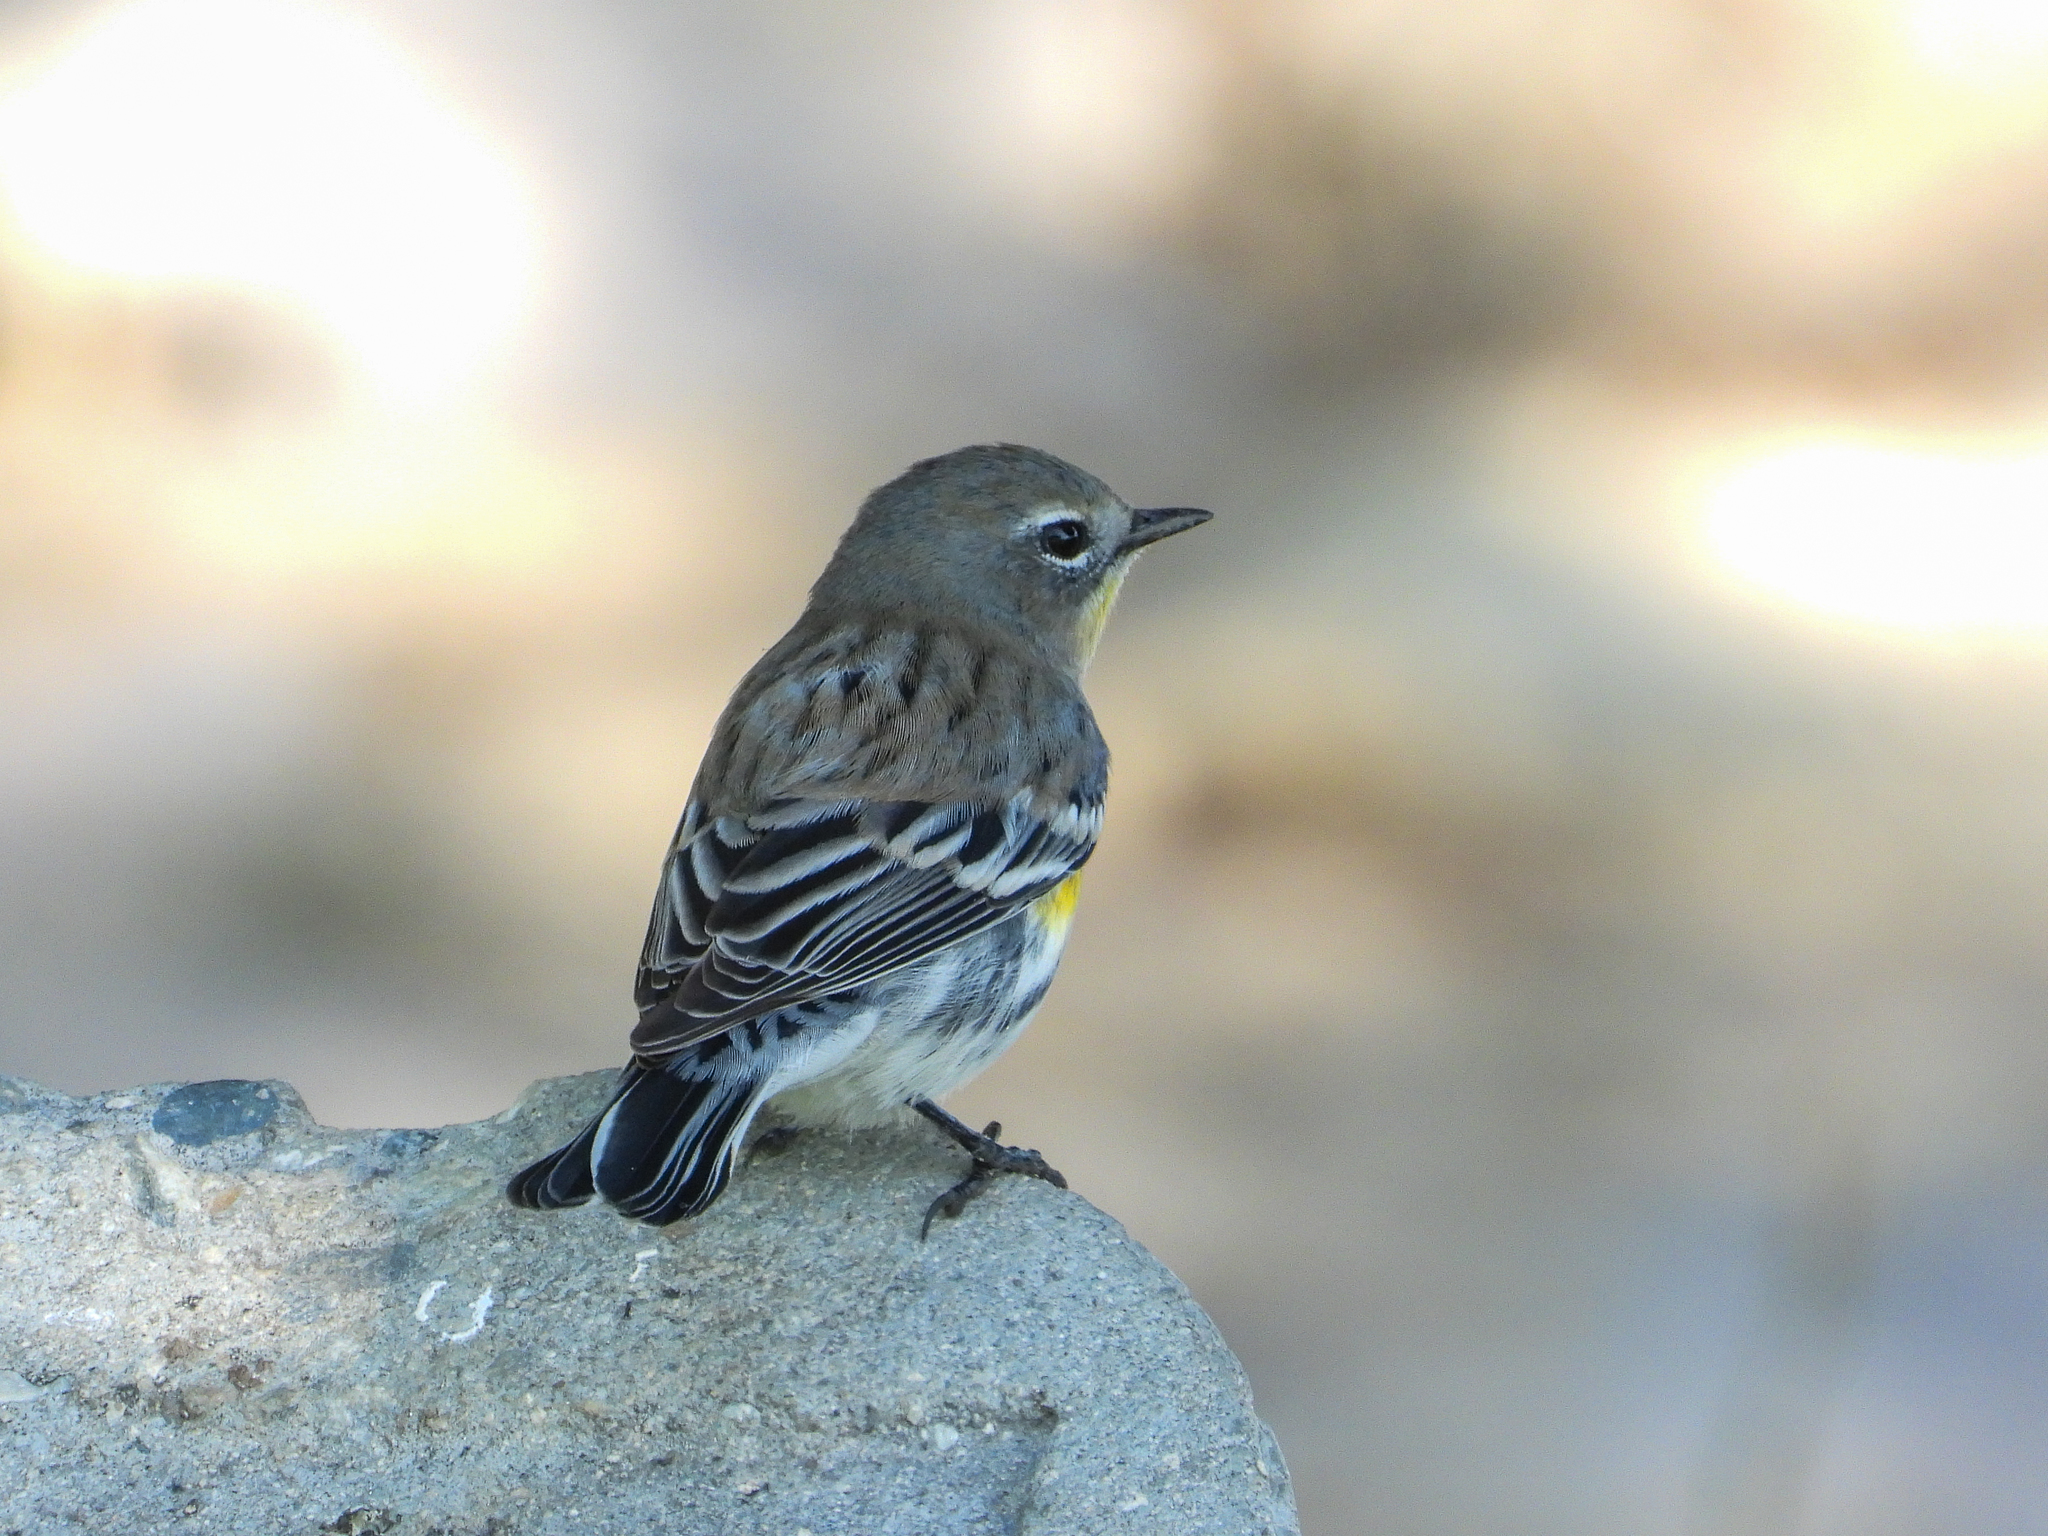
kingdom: Animalia
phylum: Chordata
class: Aves
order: Passeriformes
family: Parulidae
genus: Setophaga
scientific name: Setophaga coronata
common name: Myrtle warbler
